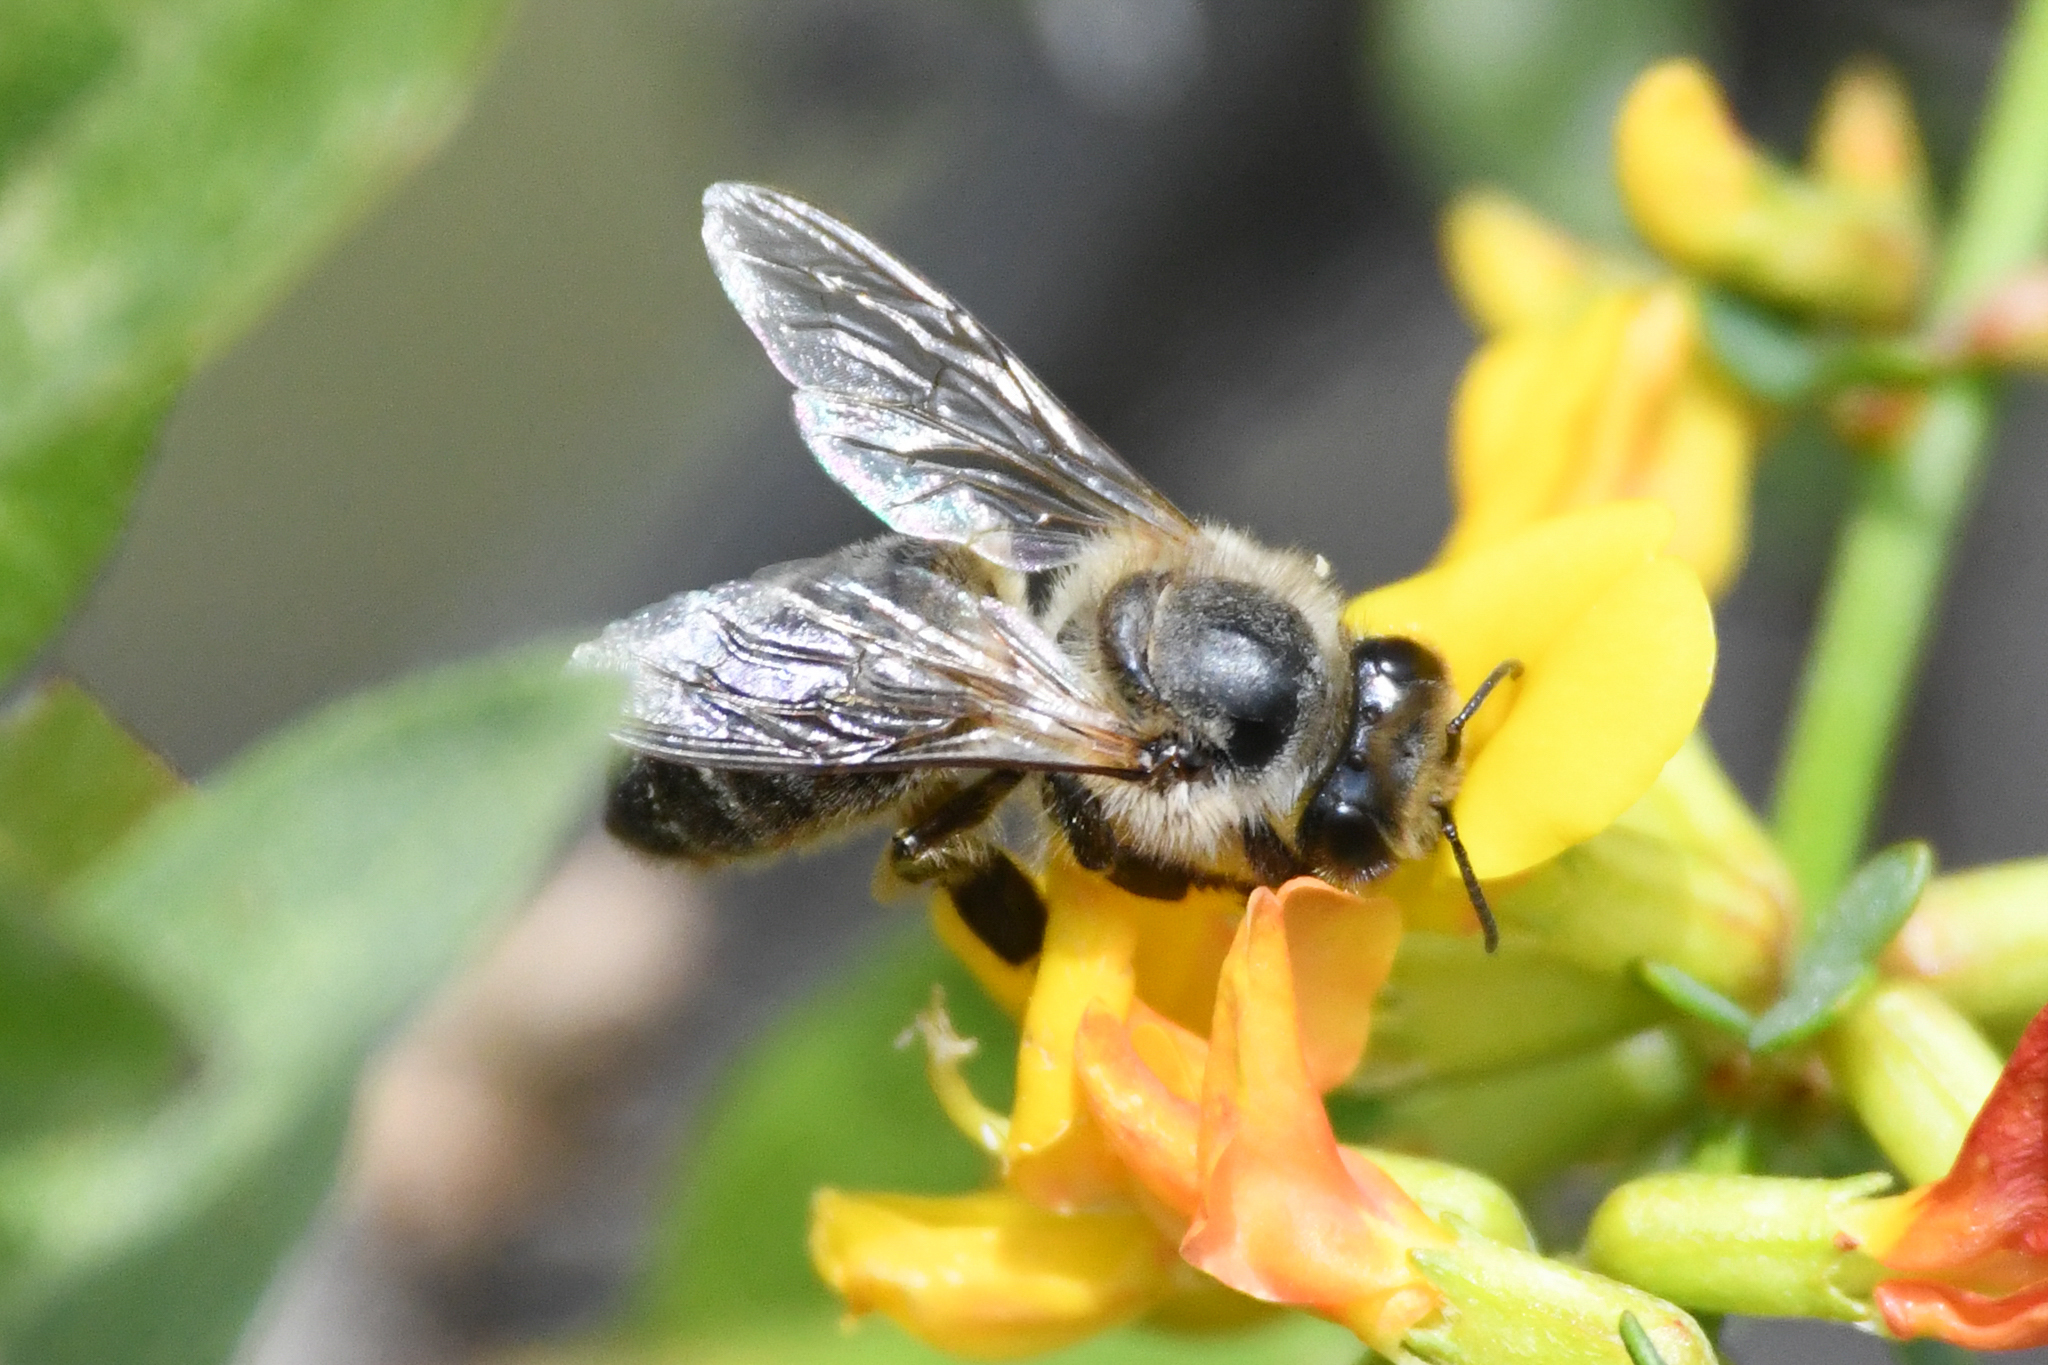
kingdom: Animalia
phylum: Arthropoda
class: Insecta
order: Hymenoptera
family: Apidae
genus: Apis
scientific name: Apis mellifera
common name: Honey bee
